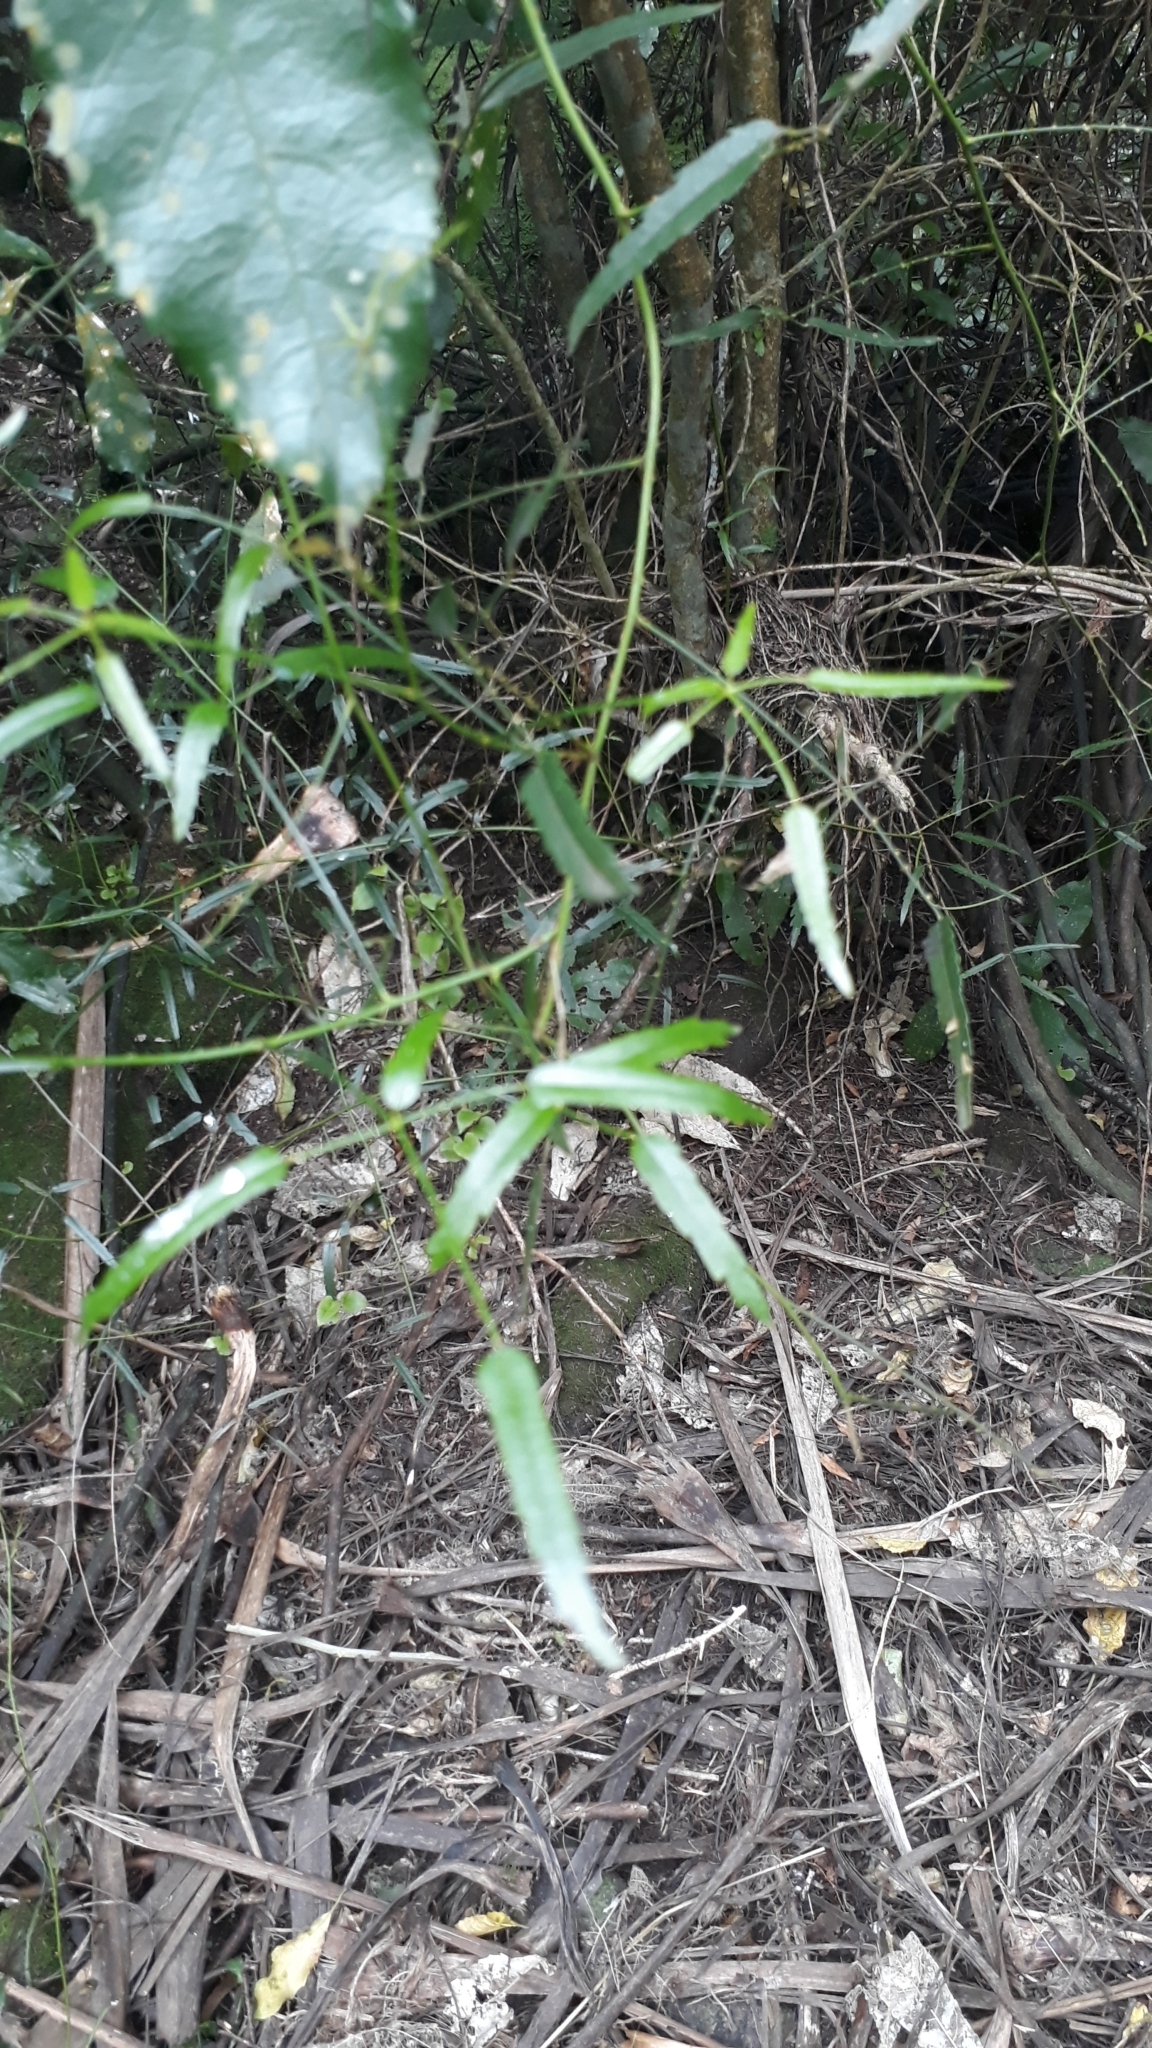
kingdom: Plantae
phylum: Tracheophyta
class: Magnoliopsida
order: Rosales
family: Rosaceae
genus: Rubus
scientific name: Rubus schmidelioides
